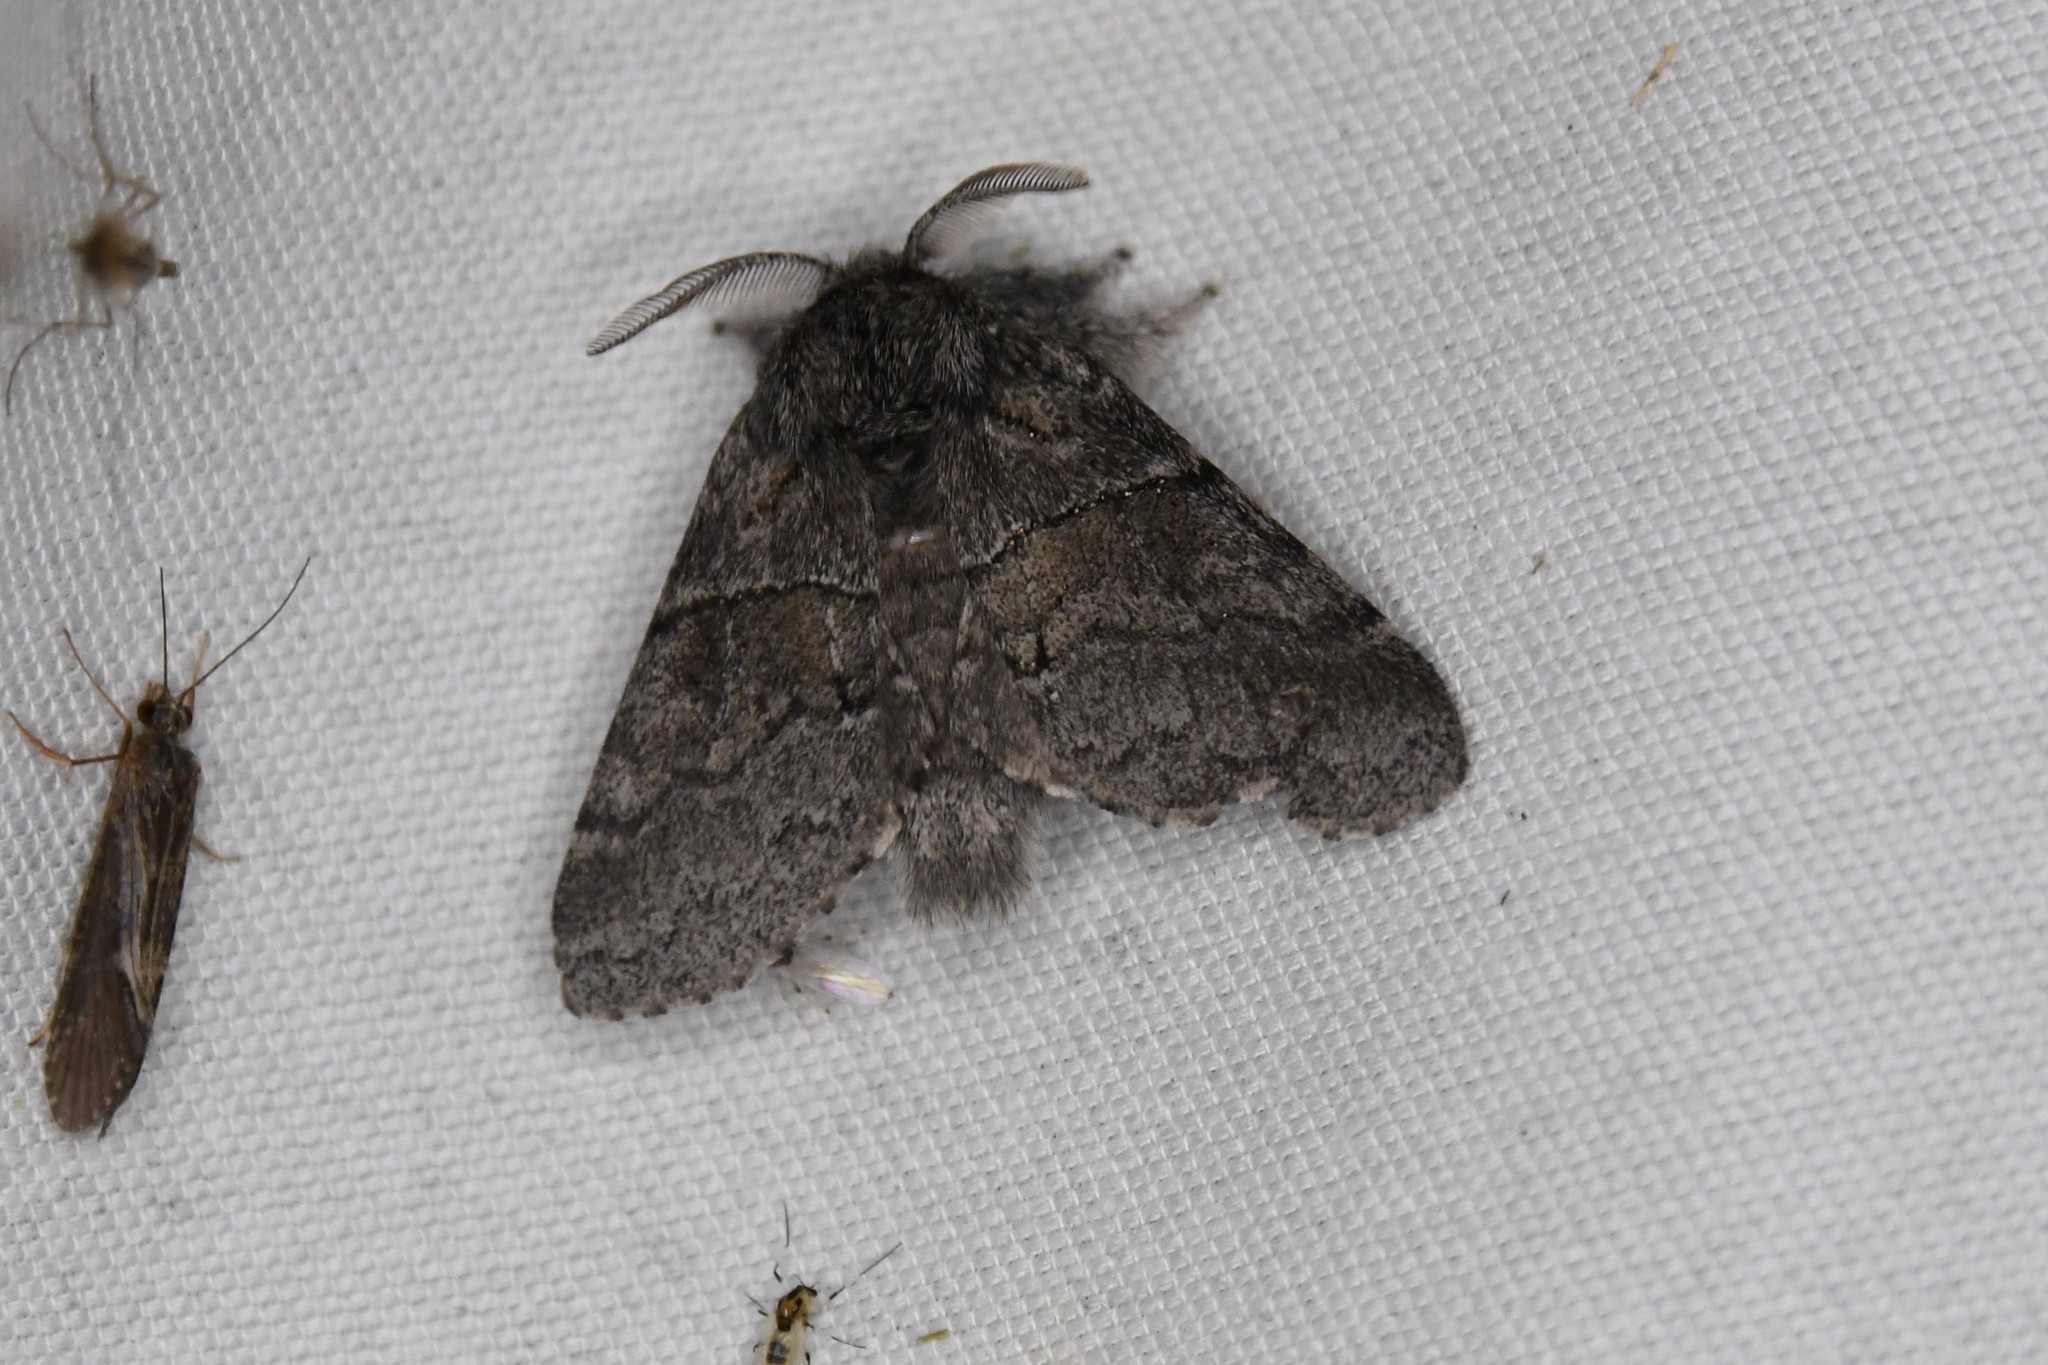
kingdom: Animalia
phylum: Arthropoda
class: Insecta
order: Lepidoptera
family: Notodontidae
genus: Gluphisia
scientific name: Gluphisia septentrionis
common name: Common gluphisia
